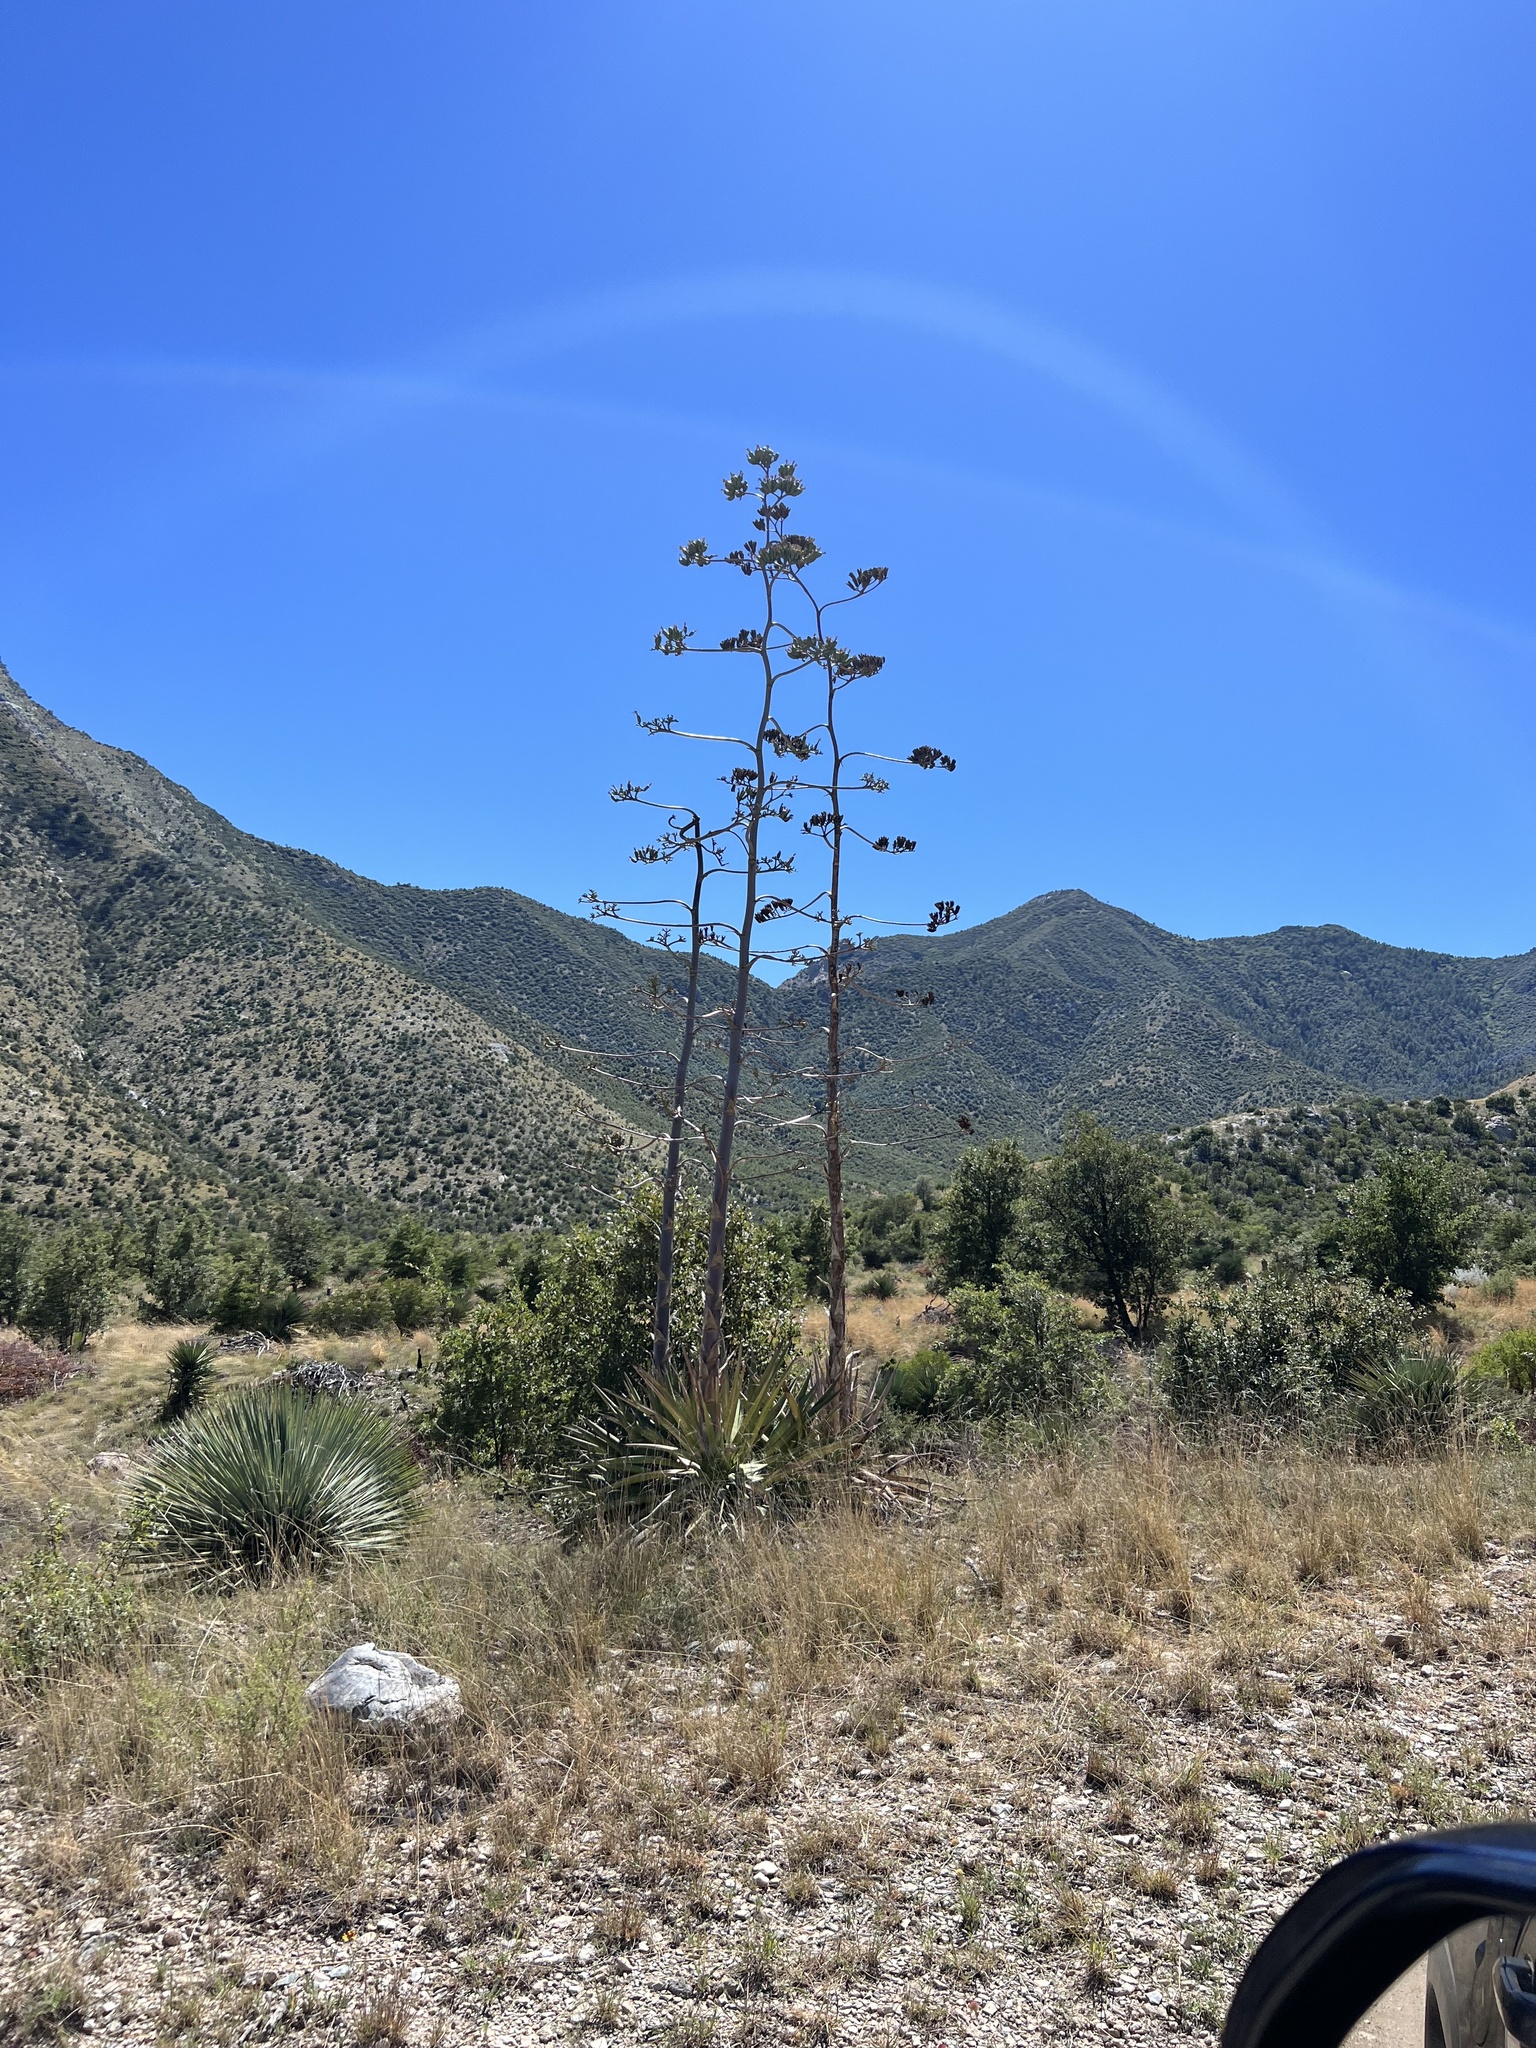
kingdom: Plantae
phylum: Tracheophyta
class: Liliopsida
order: Asparagales
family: Asparagaceae
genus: Agave
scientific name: Agave palmeri
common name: Palmer agave
